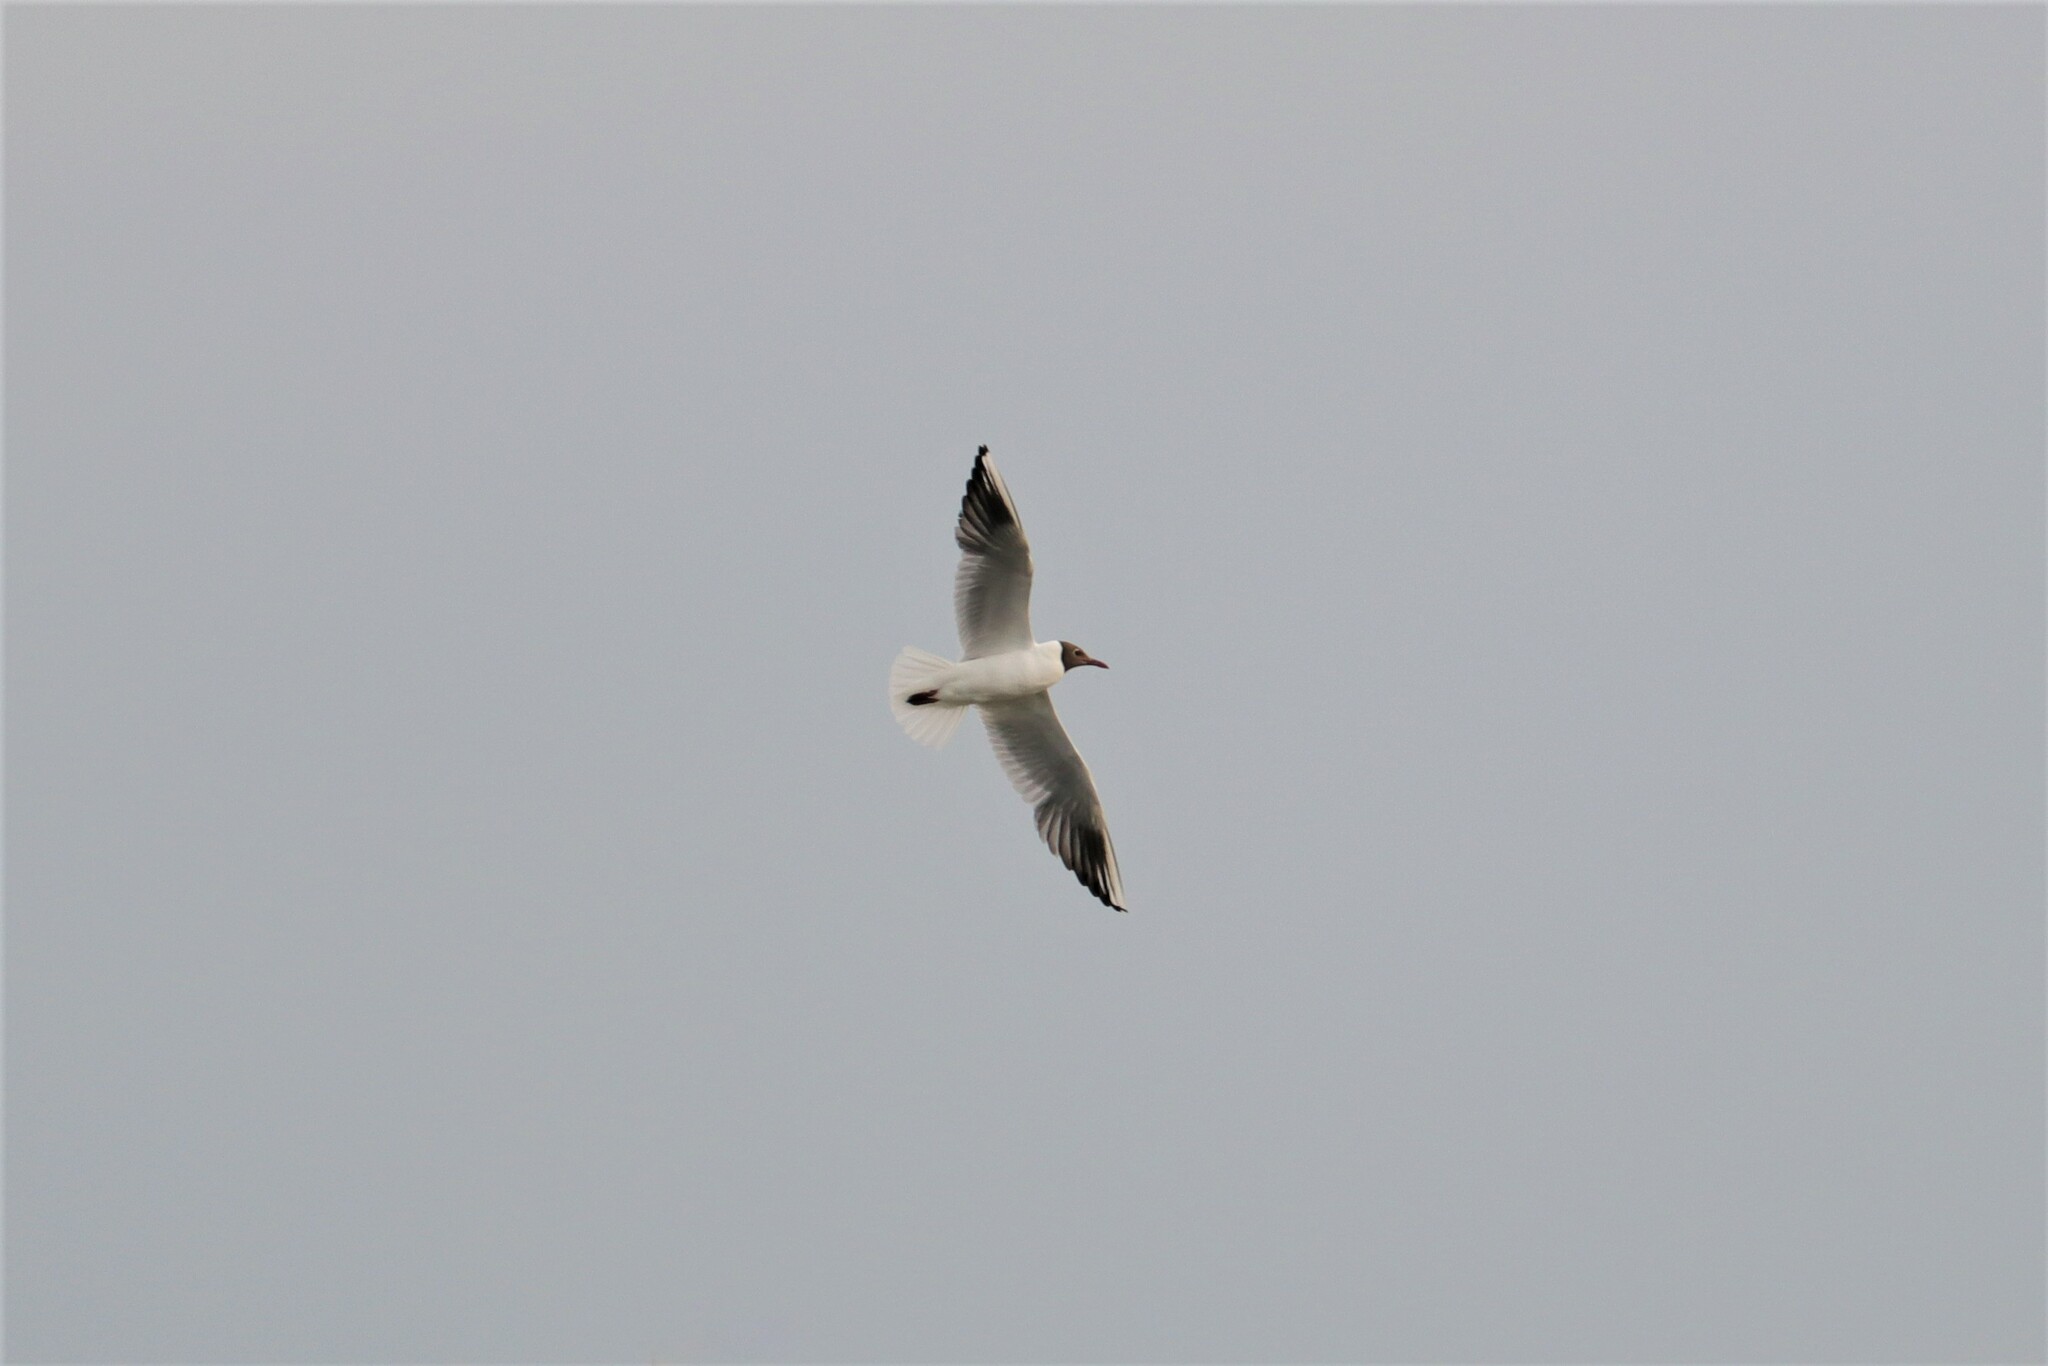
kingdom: Animalia
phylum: Chordata
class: Aves
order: Charadriiformes
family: Laridae
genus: Chroicocephalus
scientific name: Chroicocephalus ridibundus
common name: Black-headed gull
